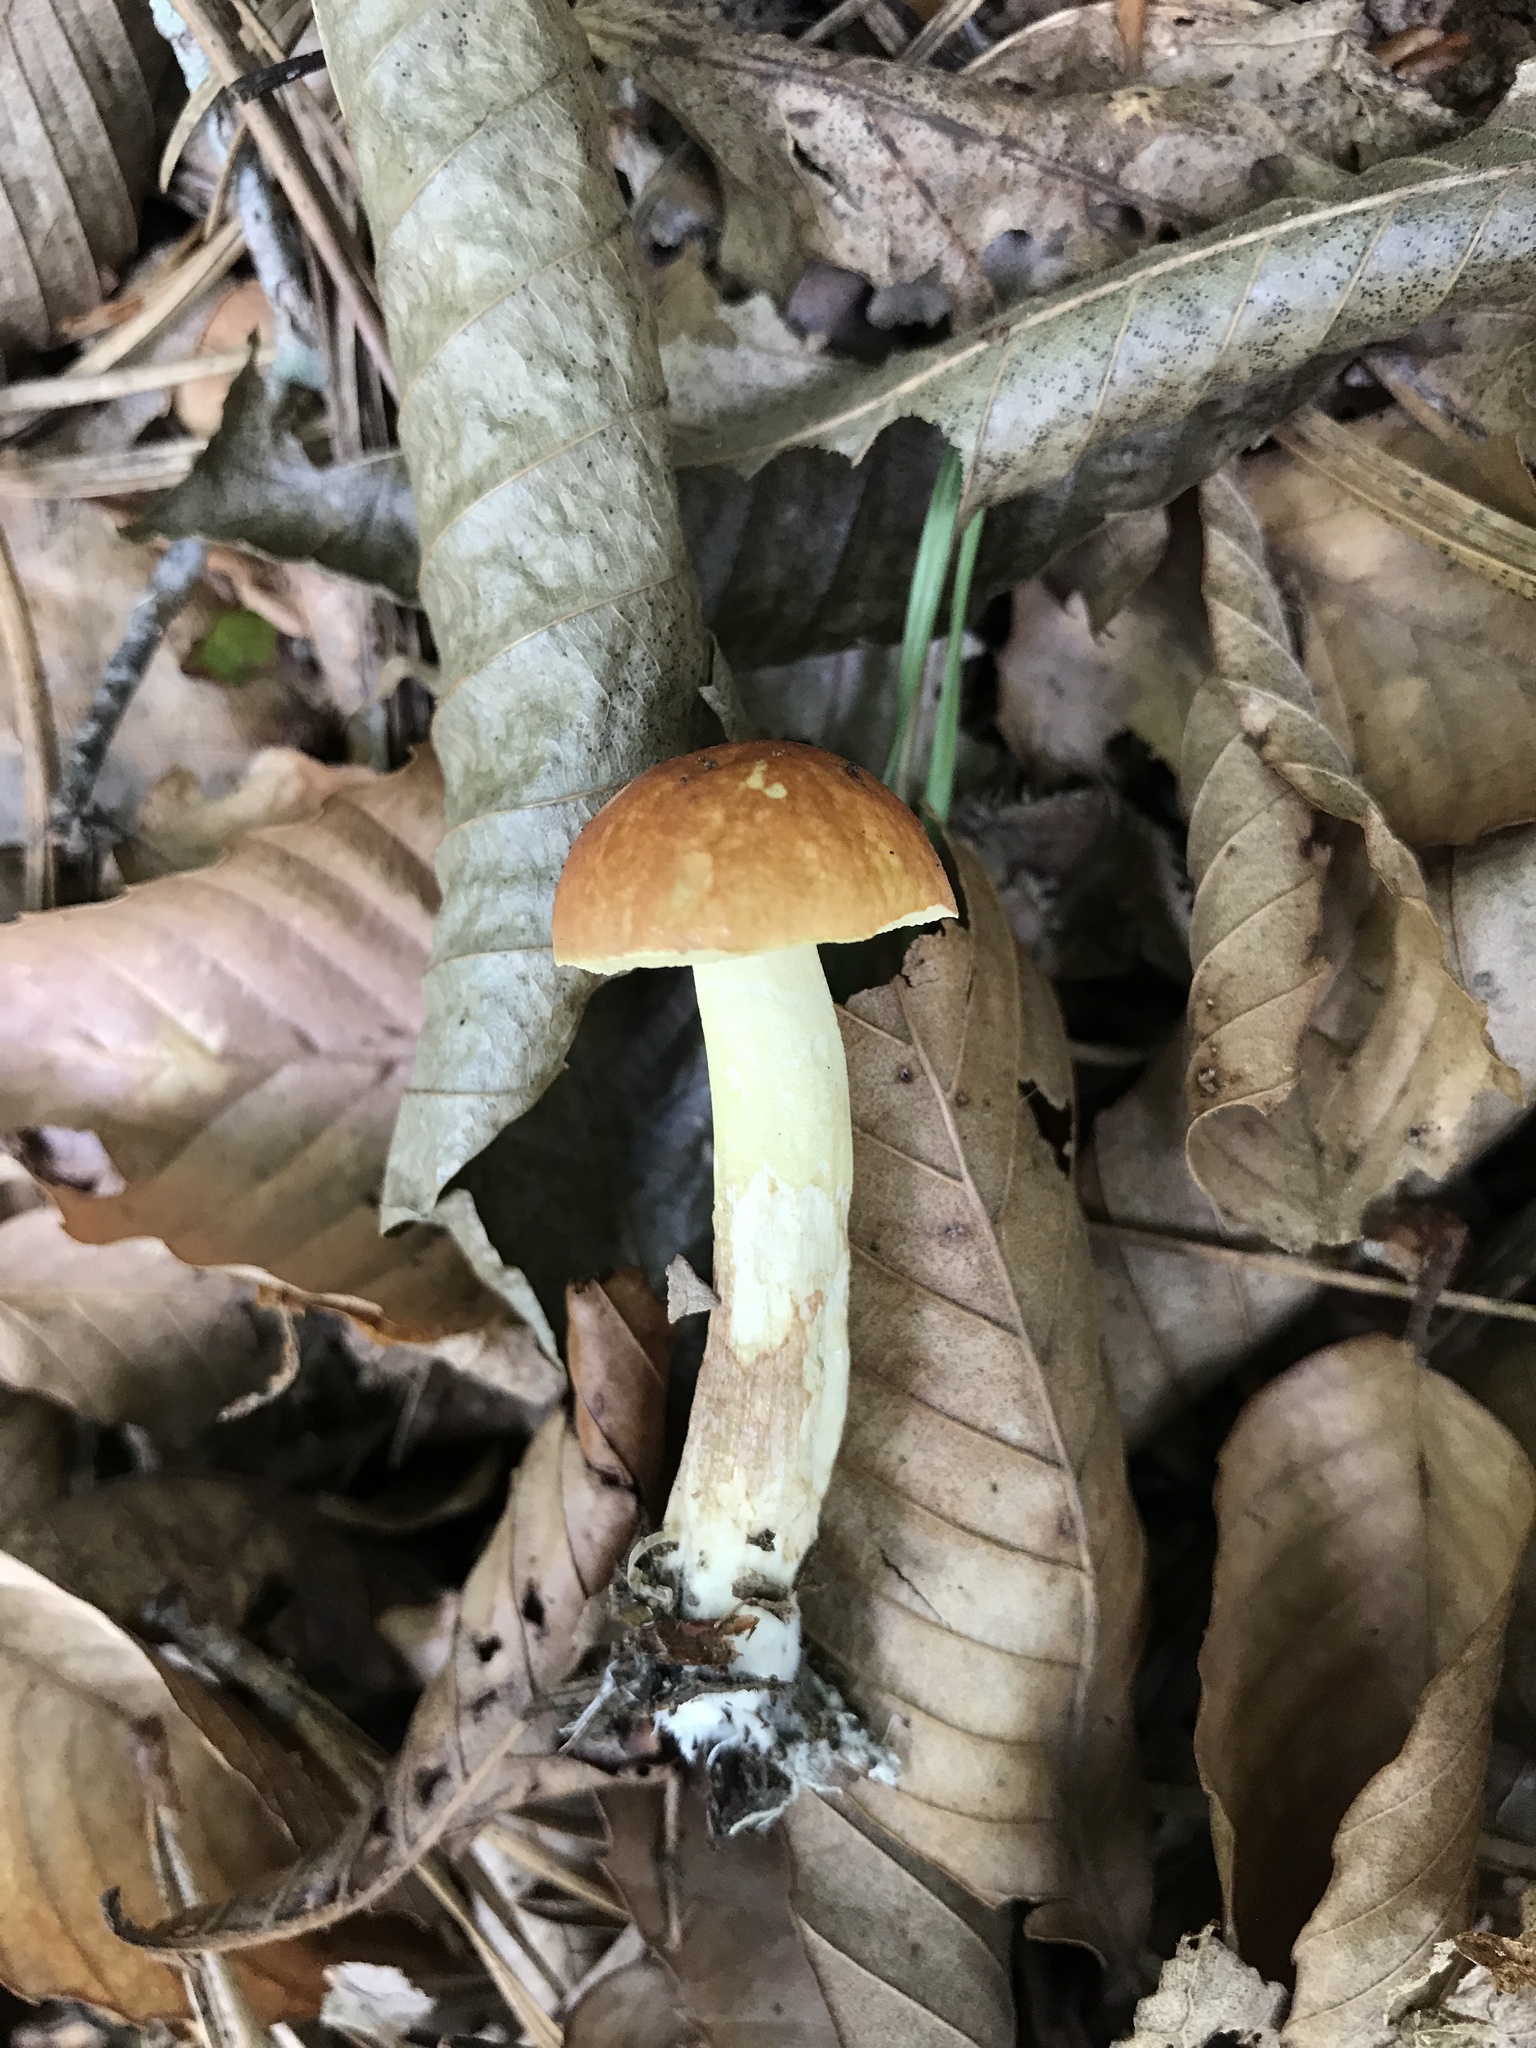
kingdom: Fungi
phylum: Basidiomycota
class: Agaricomycetes
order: Boletales
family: Boletaceae
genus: Leccinum
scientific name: Leccinum longicurvipes
